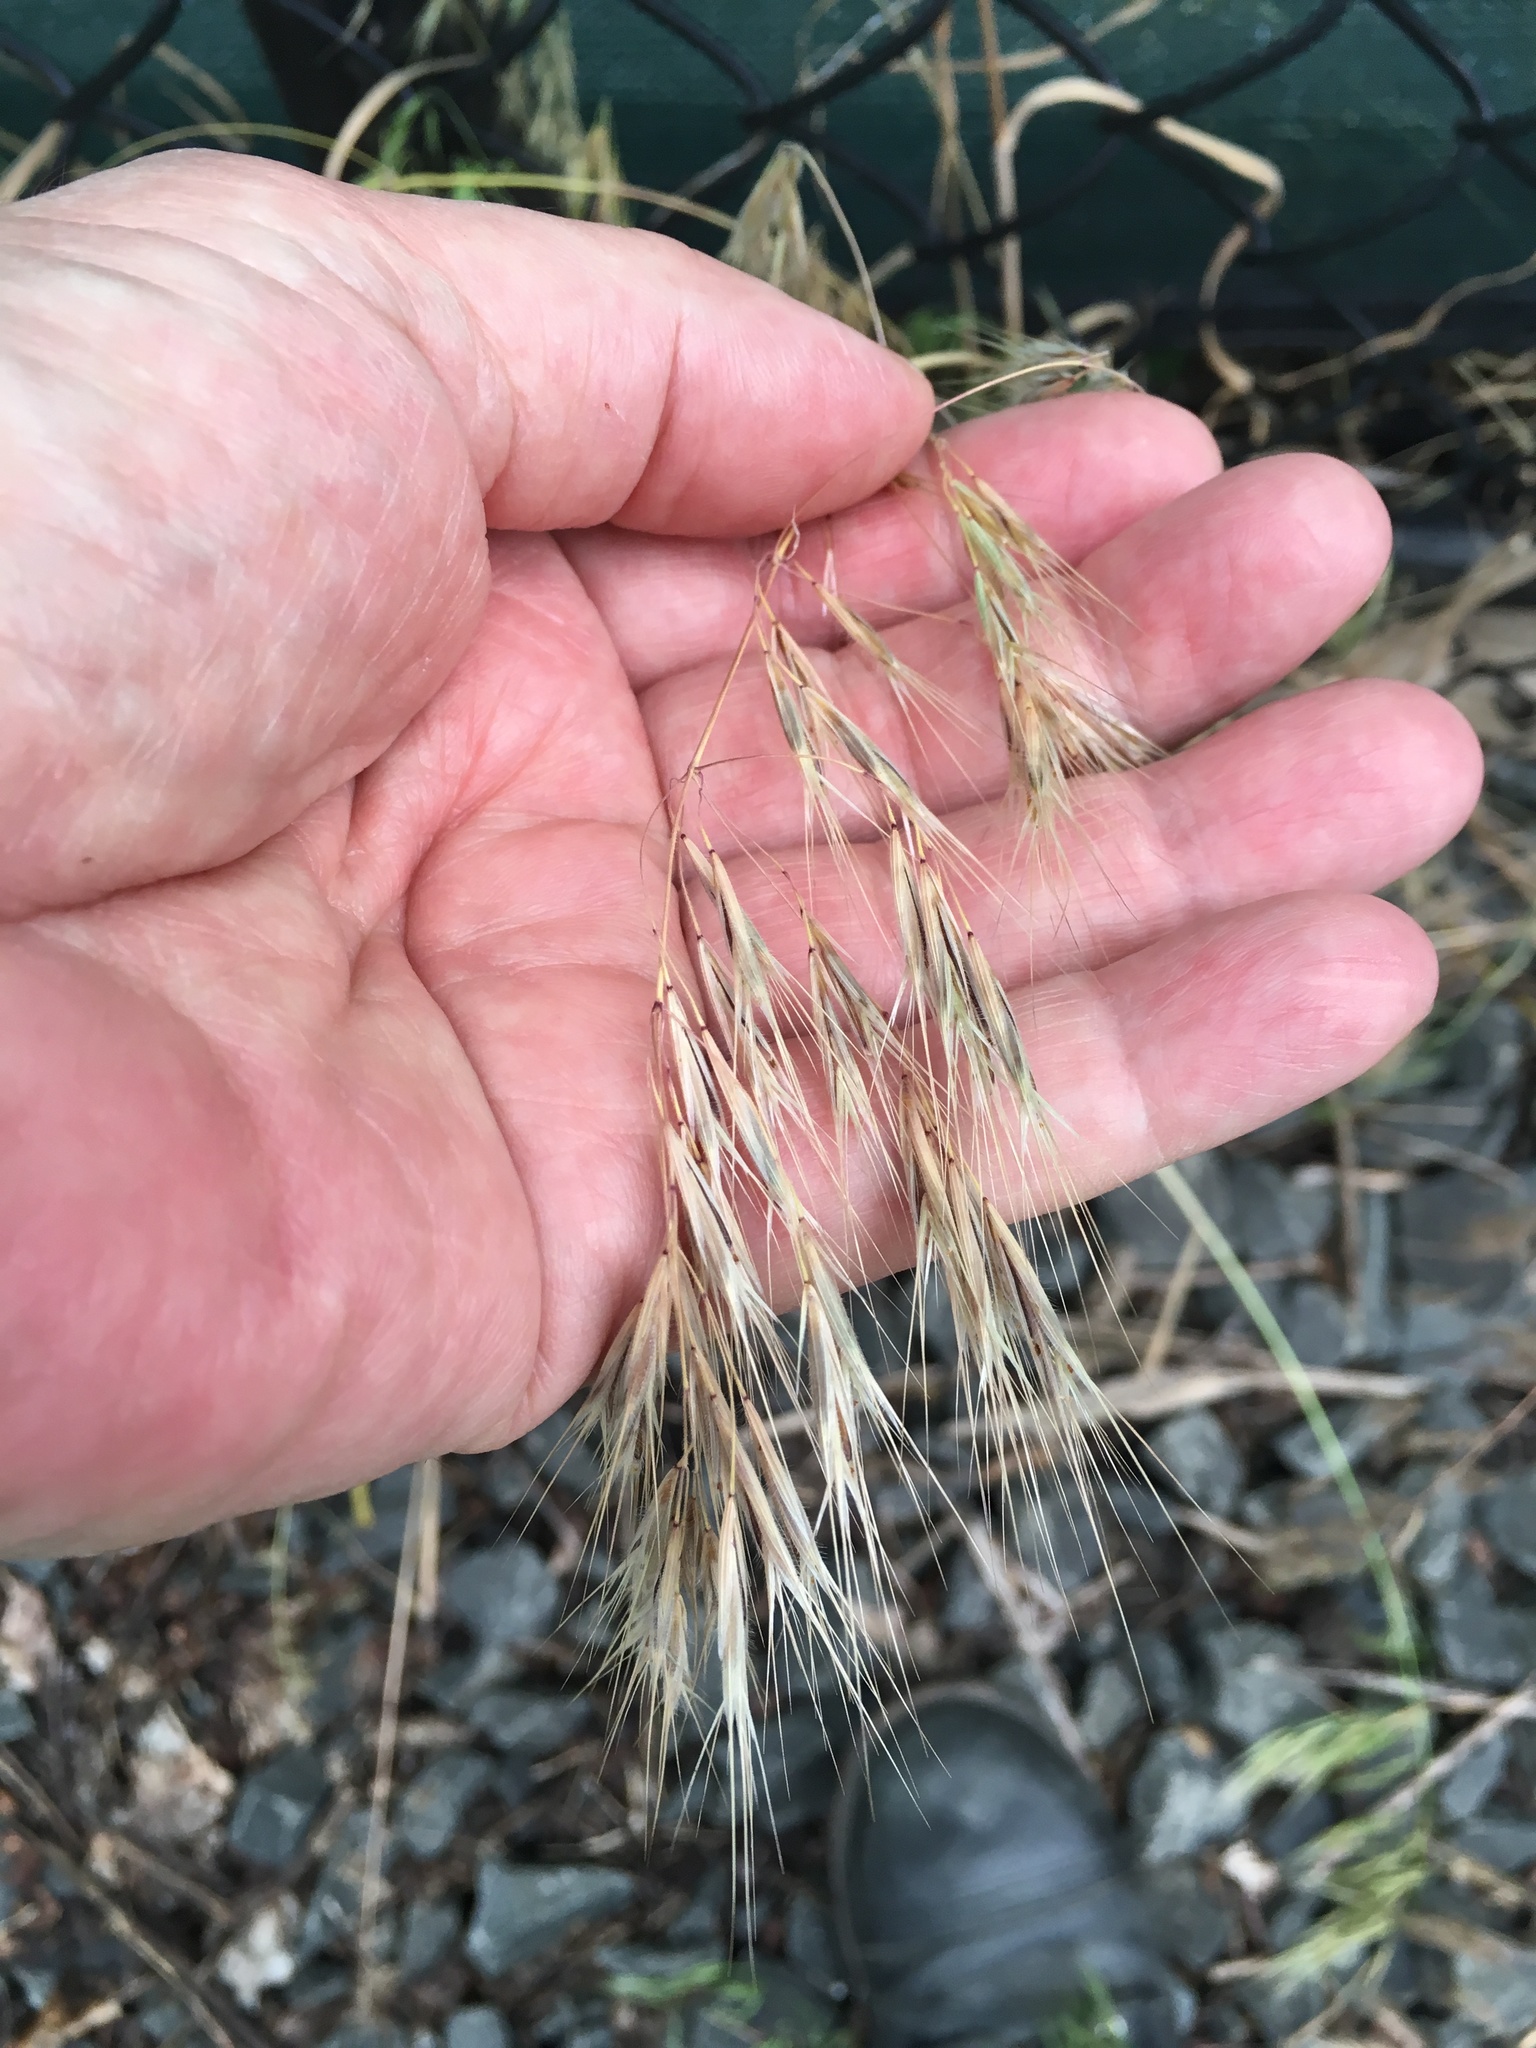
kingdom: Plantae
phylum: Tracheophyta
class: Liliopsida
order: Poales
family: Poaceae
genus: Bromus
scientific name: Bromus tectorum
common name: Cheatgrass
